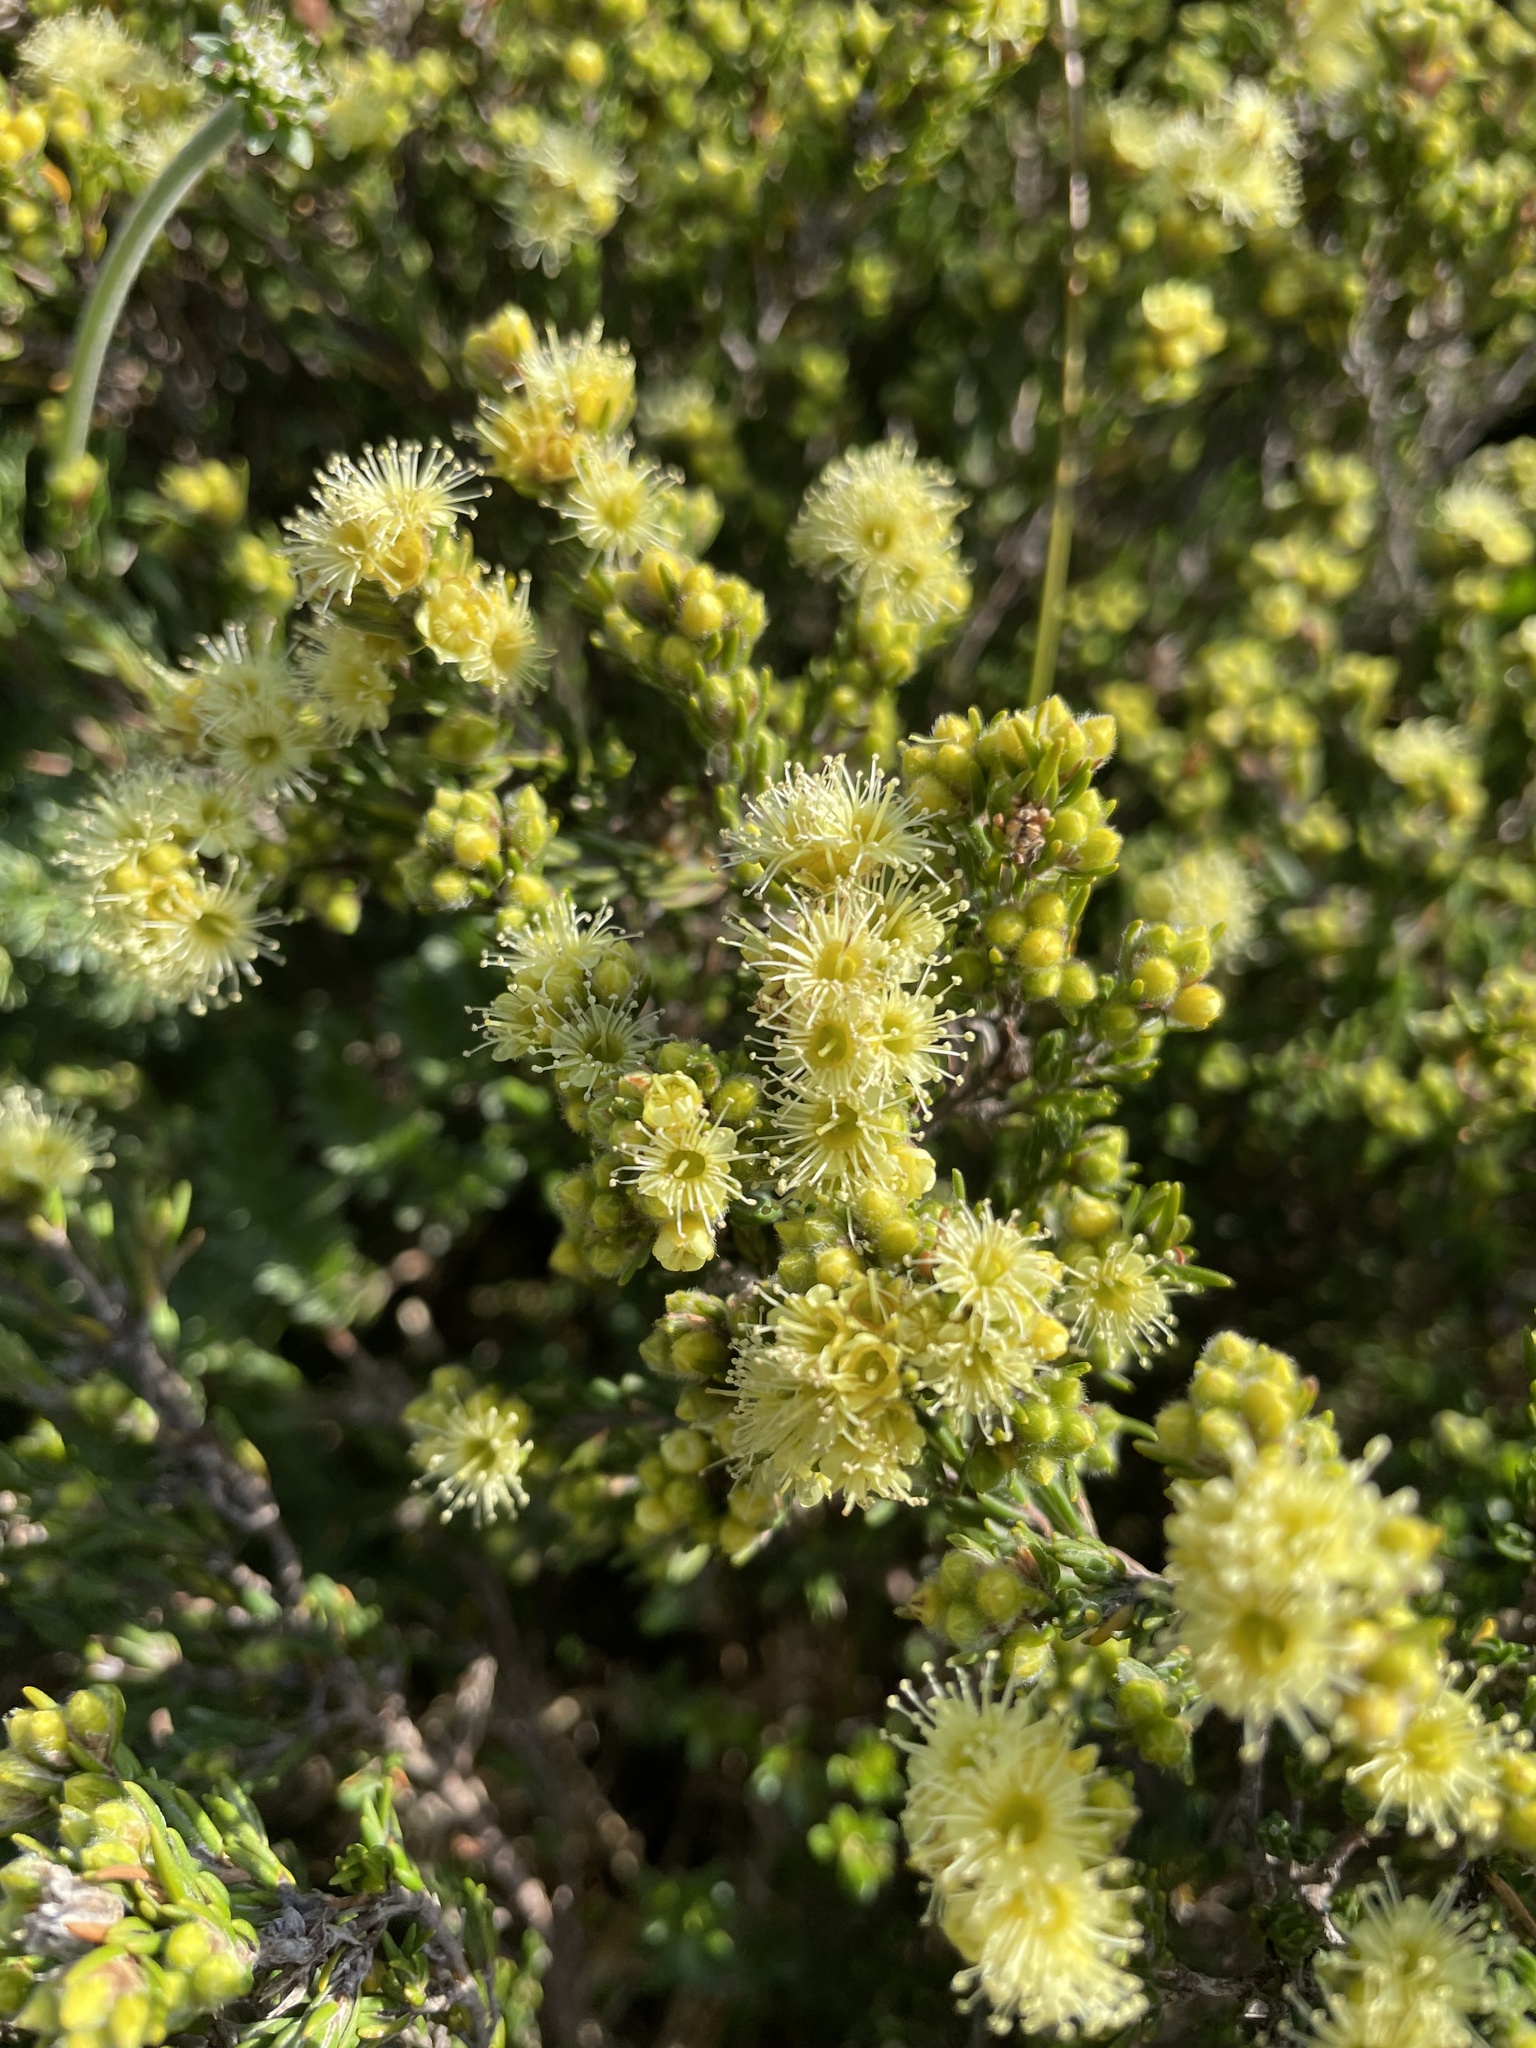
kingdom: Plantae
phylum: Tracheophyta
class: Magnoliopsida
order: Myrtales
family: Myrtaceae
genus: Kunzea
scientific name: Kunzea muelleri
